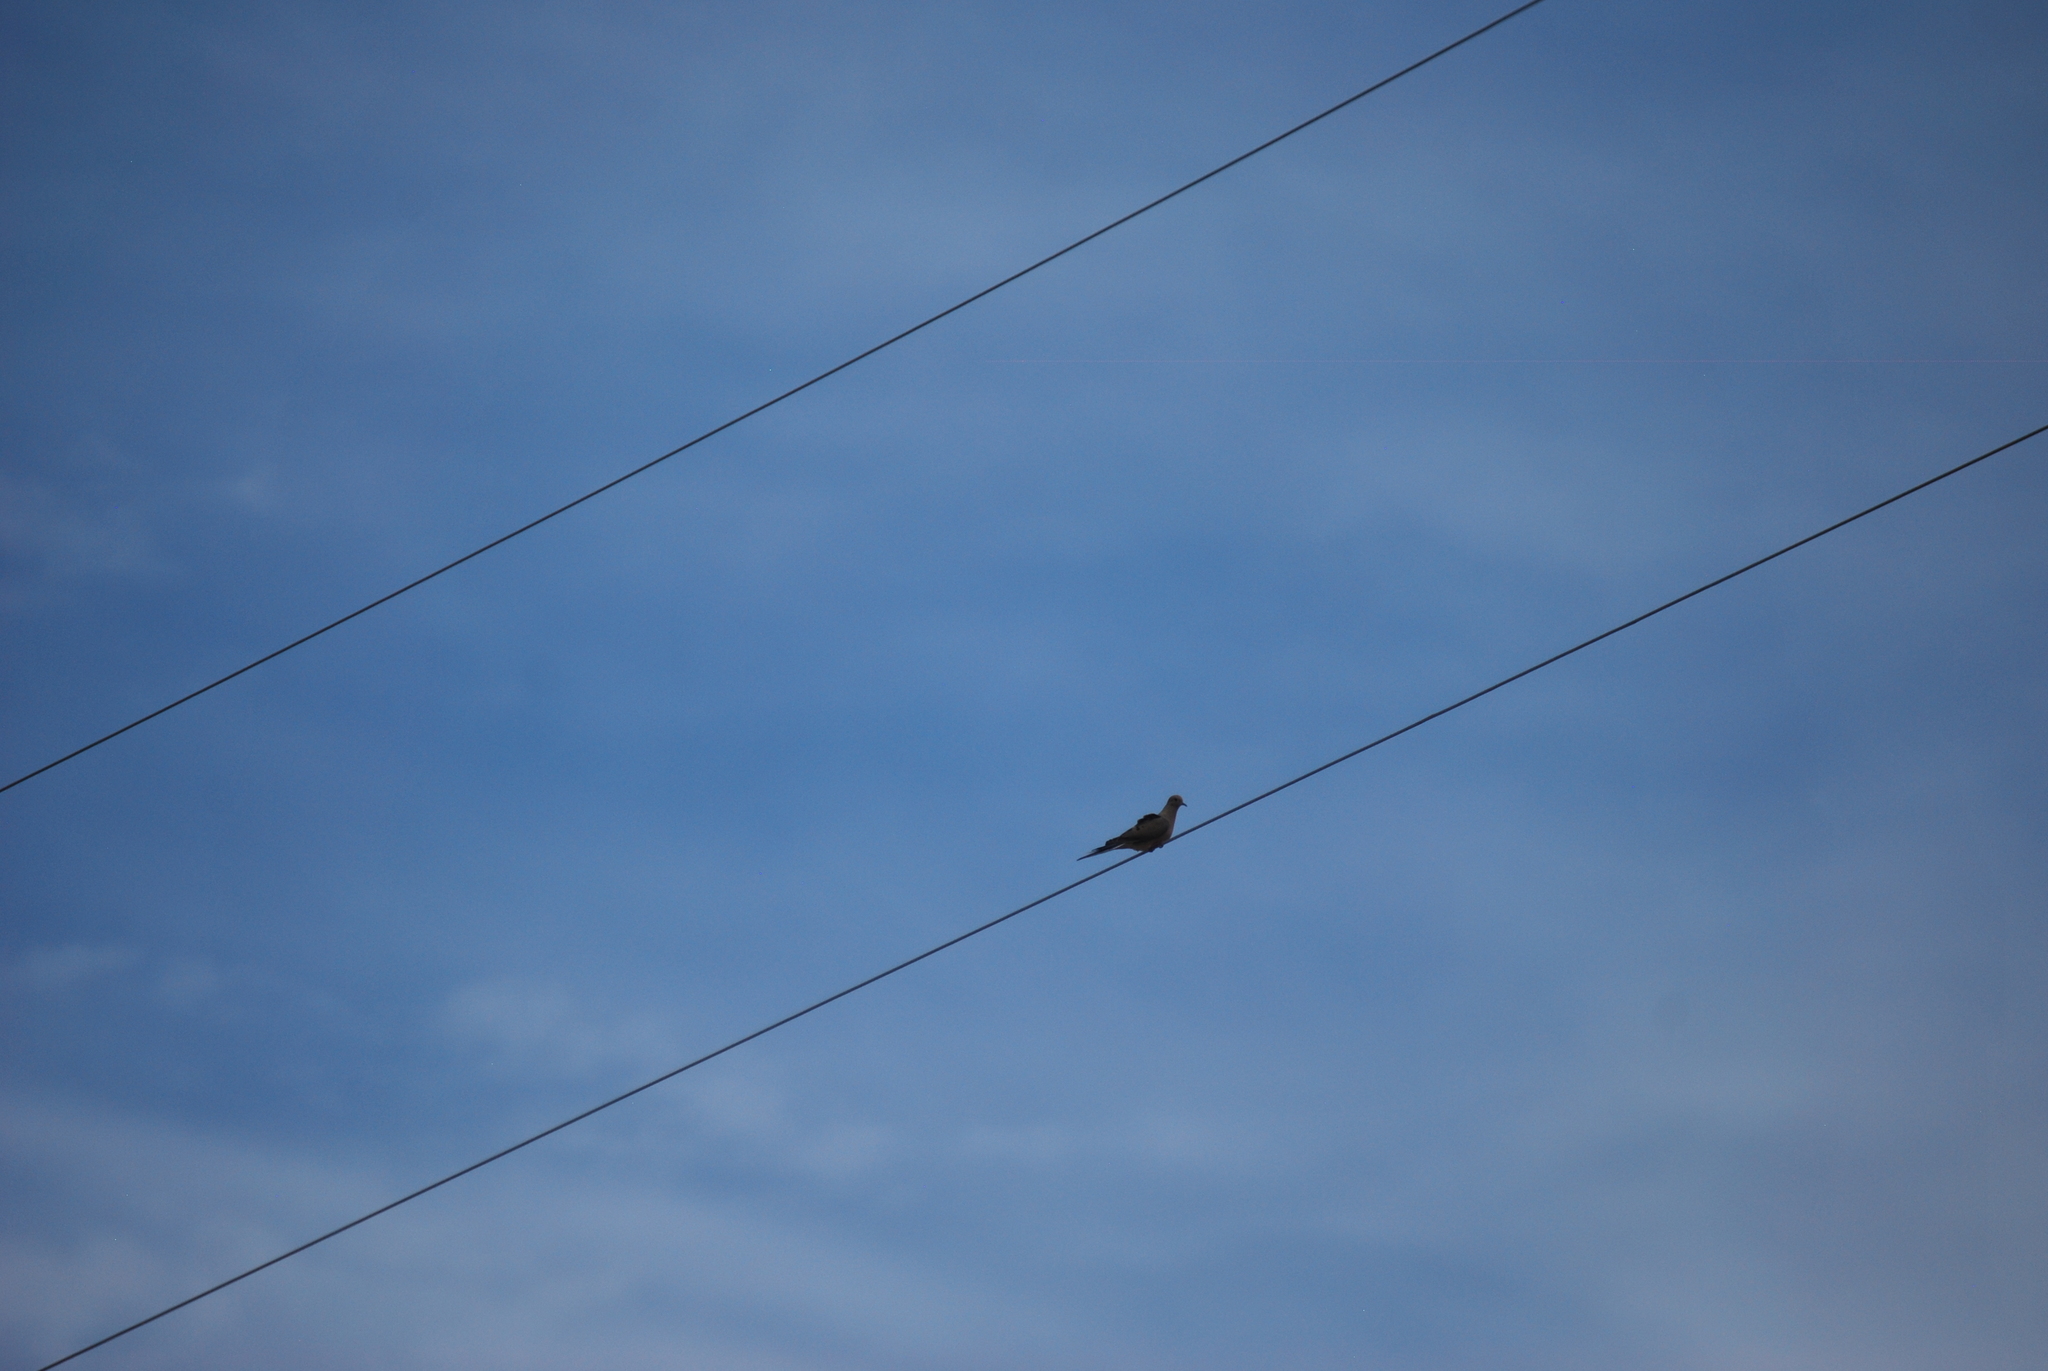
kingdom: Animalia
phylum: Chordata
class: Aves
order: Columbiformes
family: Columbidae
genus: Zenaida
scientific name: Zenaida macroura
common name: Mourning dove
